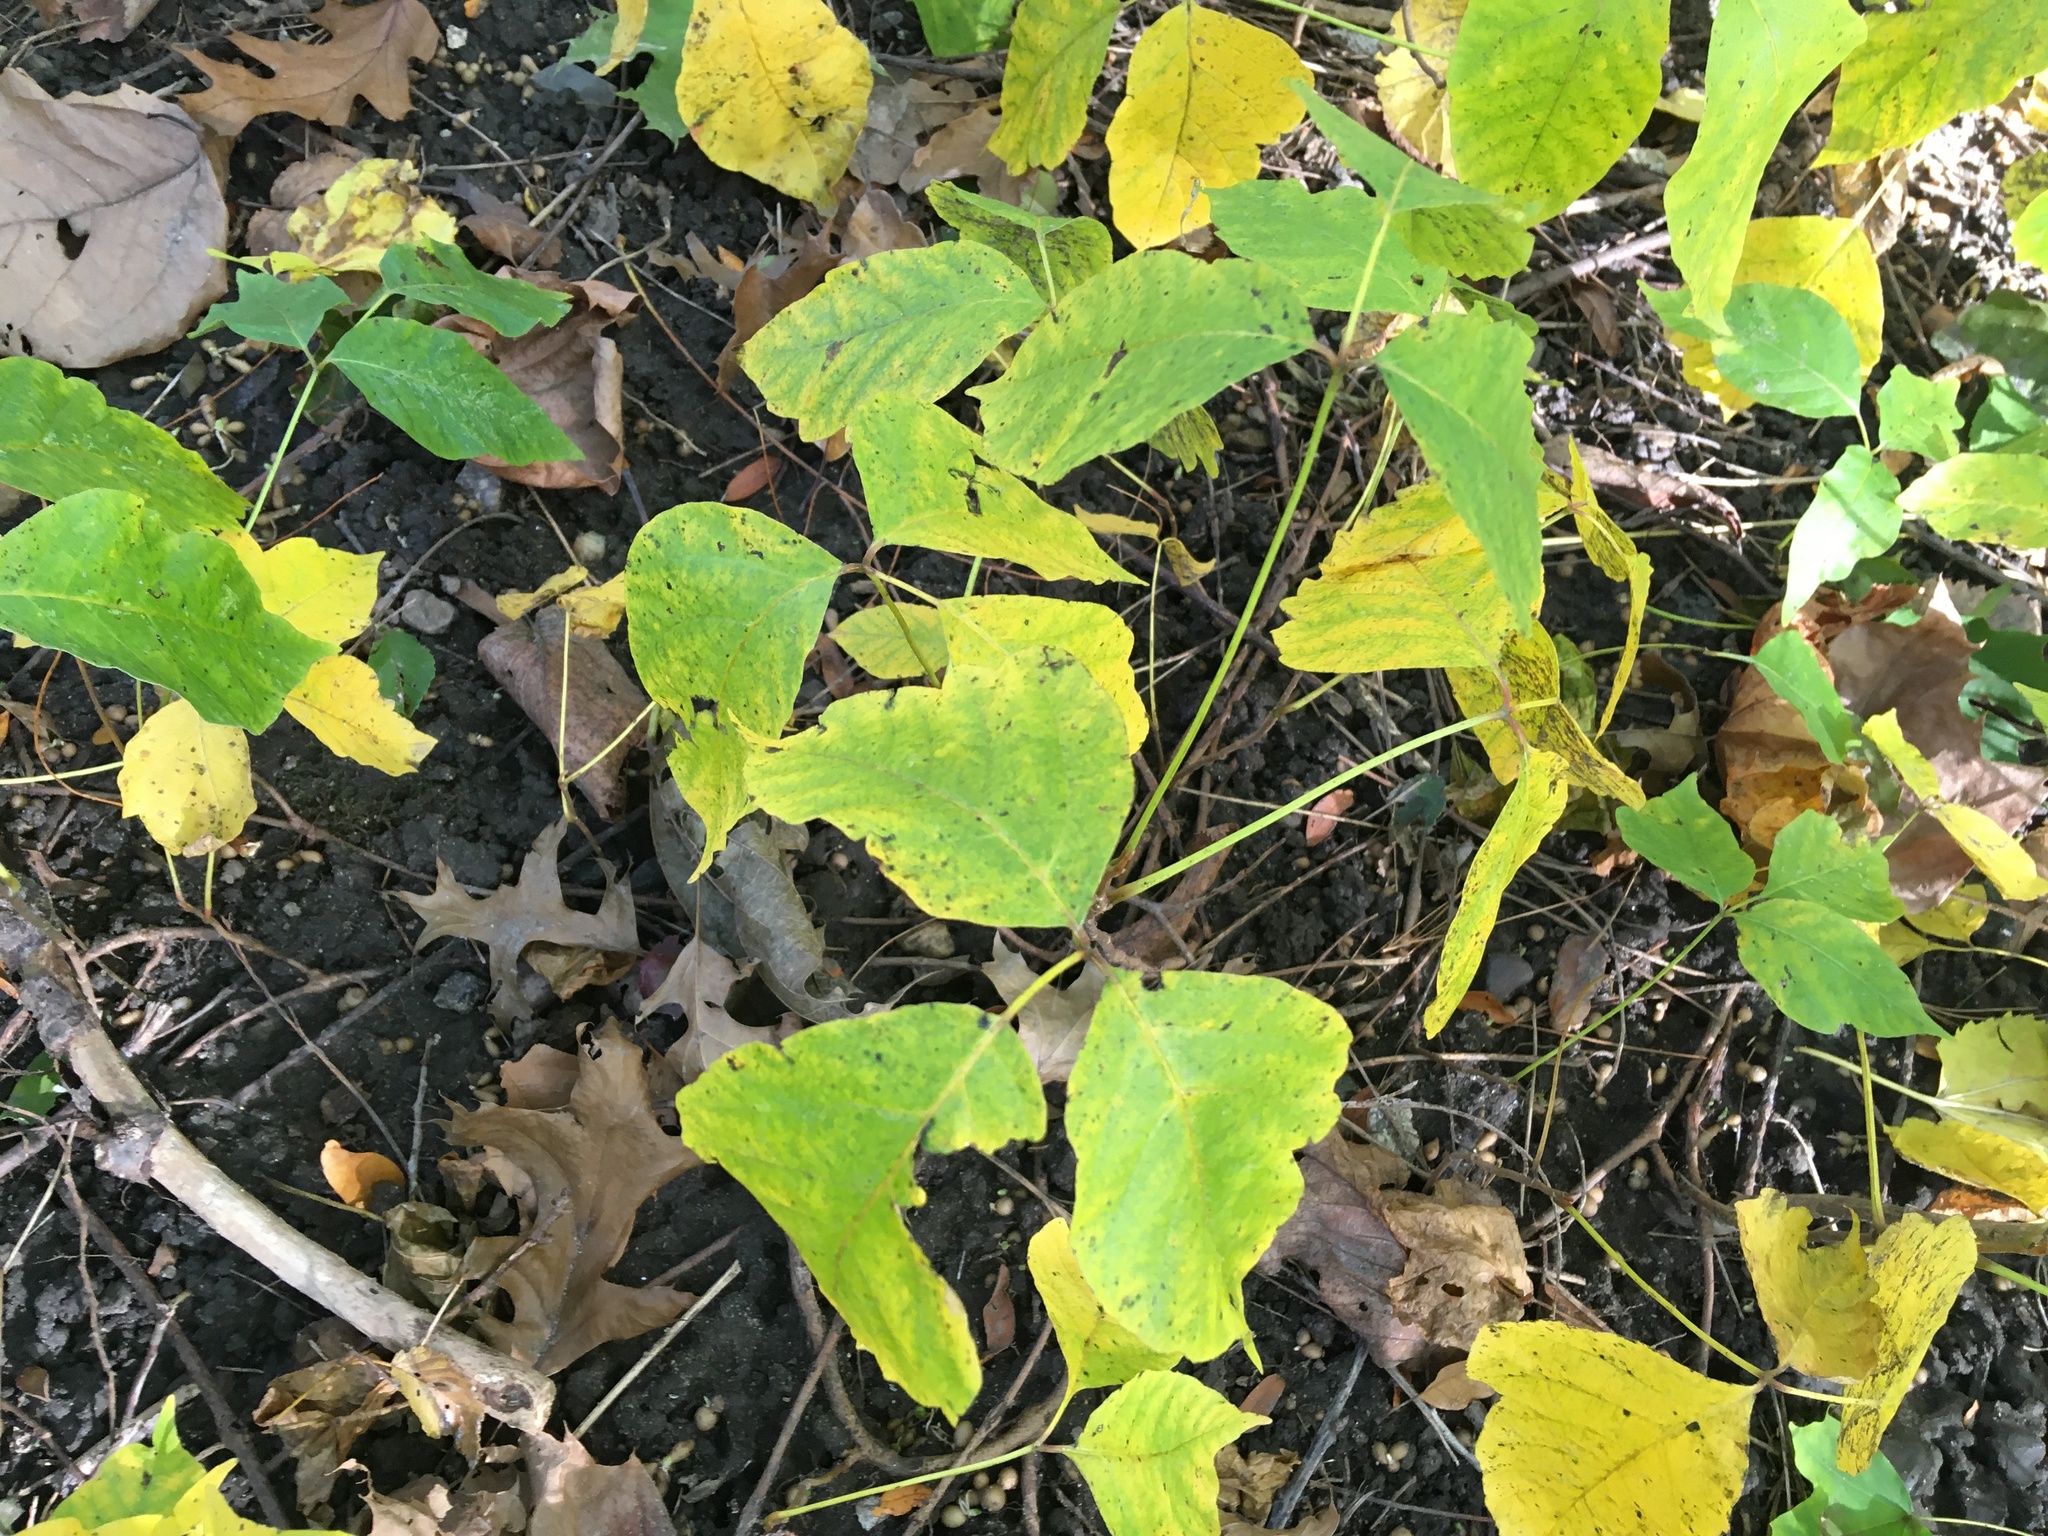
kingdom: Plantae
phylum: Tracheophyta
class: Magnoliopsida
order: Sapindales
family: Anacardiaceae
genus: Toxicodendron
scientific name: Toxicodendron radicans
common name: Poison ivy
